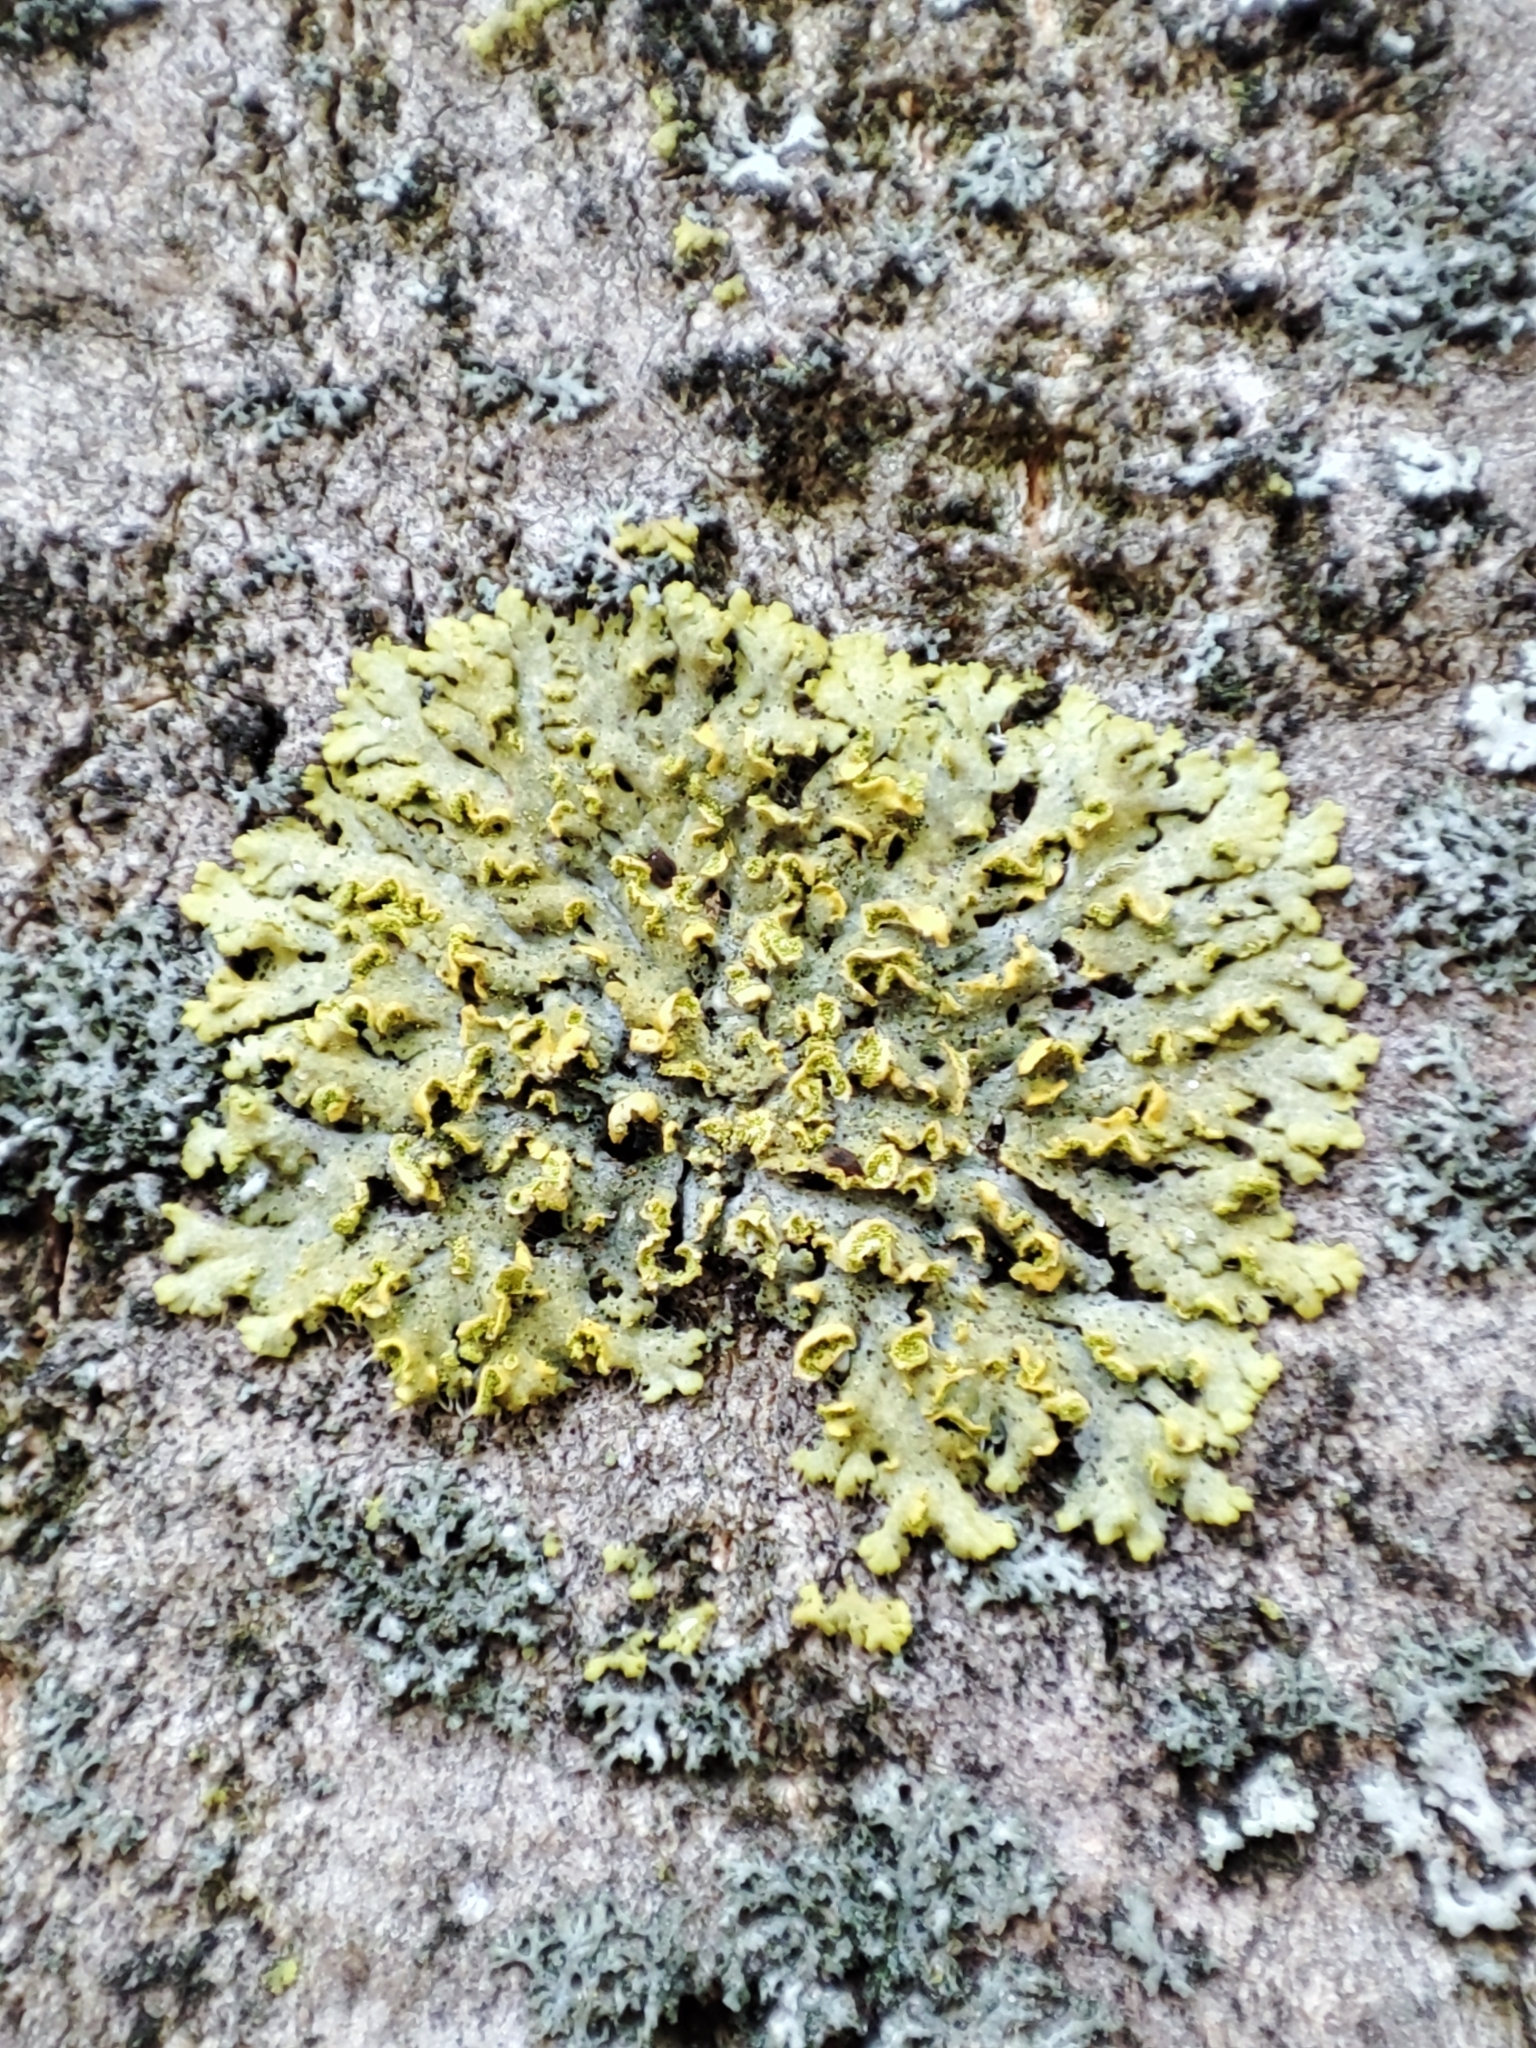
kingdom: Fungi
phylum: Ascomycota
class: Lecanoromycetes
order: Teloschistales
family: Teloschistaceae
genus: Xanthomendoza
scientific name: Xanthomendoza huculica
